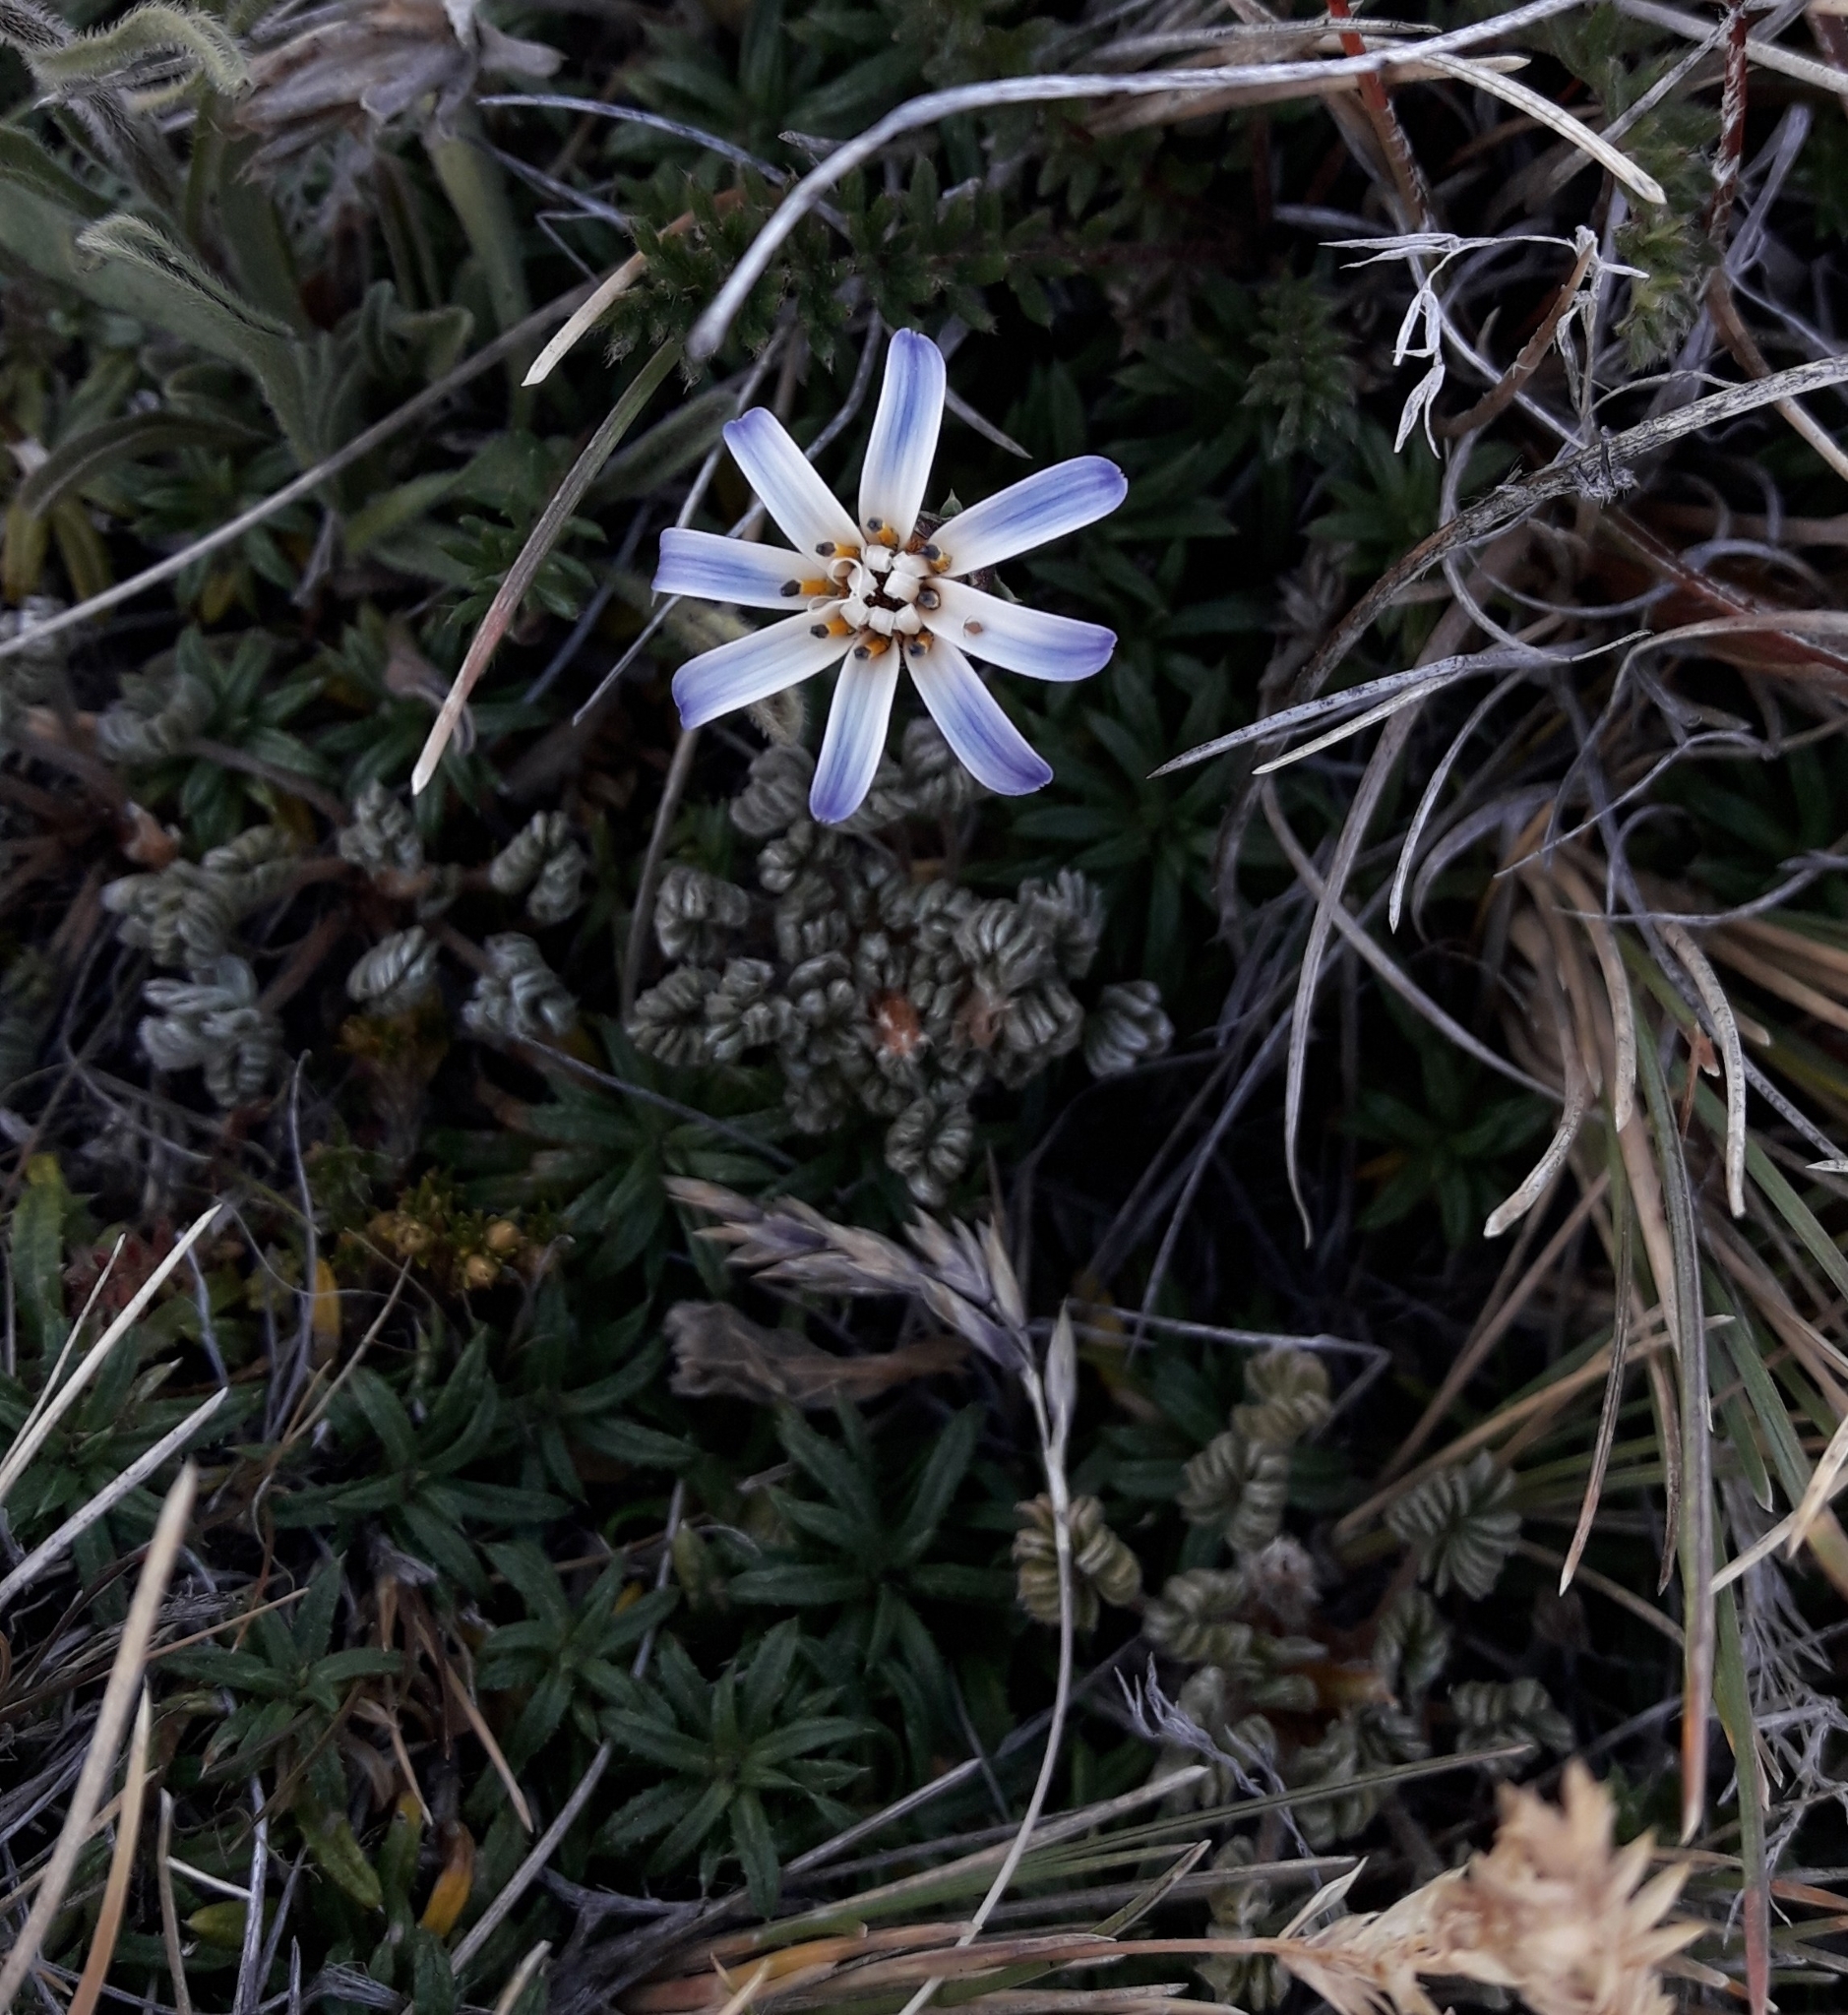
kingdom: Plantae
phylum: Tracheophyta
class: Magnoliopsida
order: Asterales
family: Asteraceae
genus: Perezia
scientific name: Perezia recurvata
